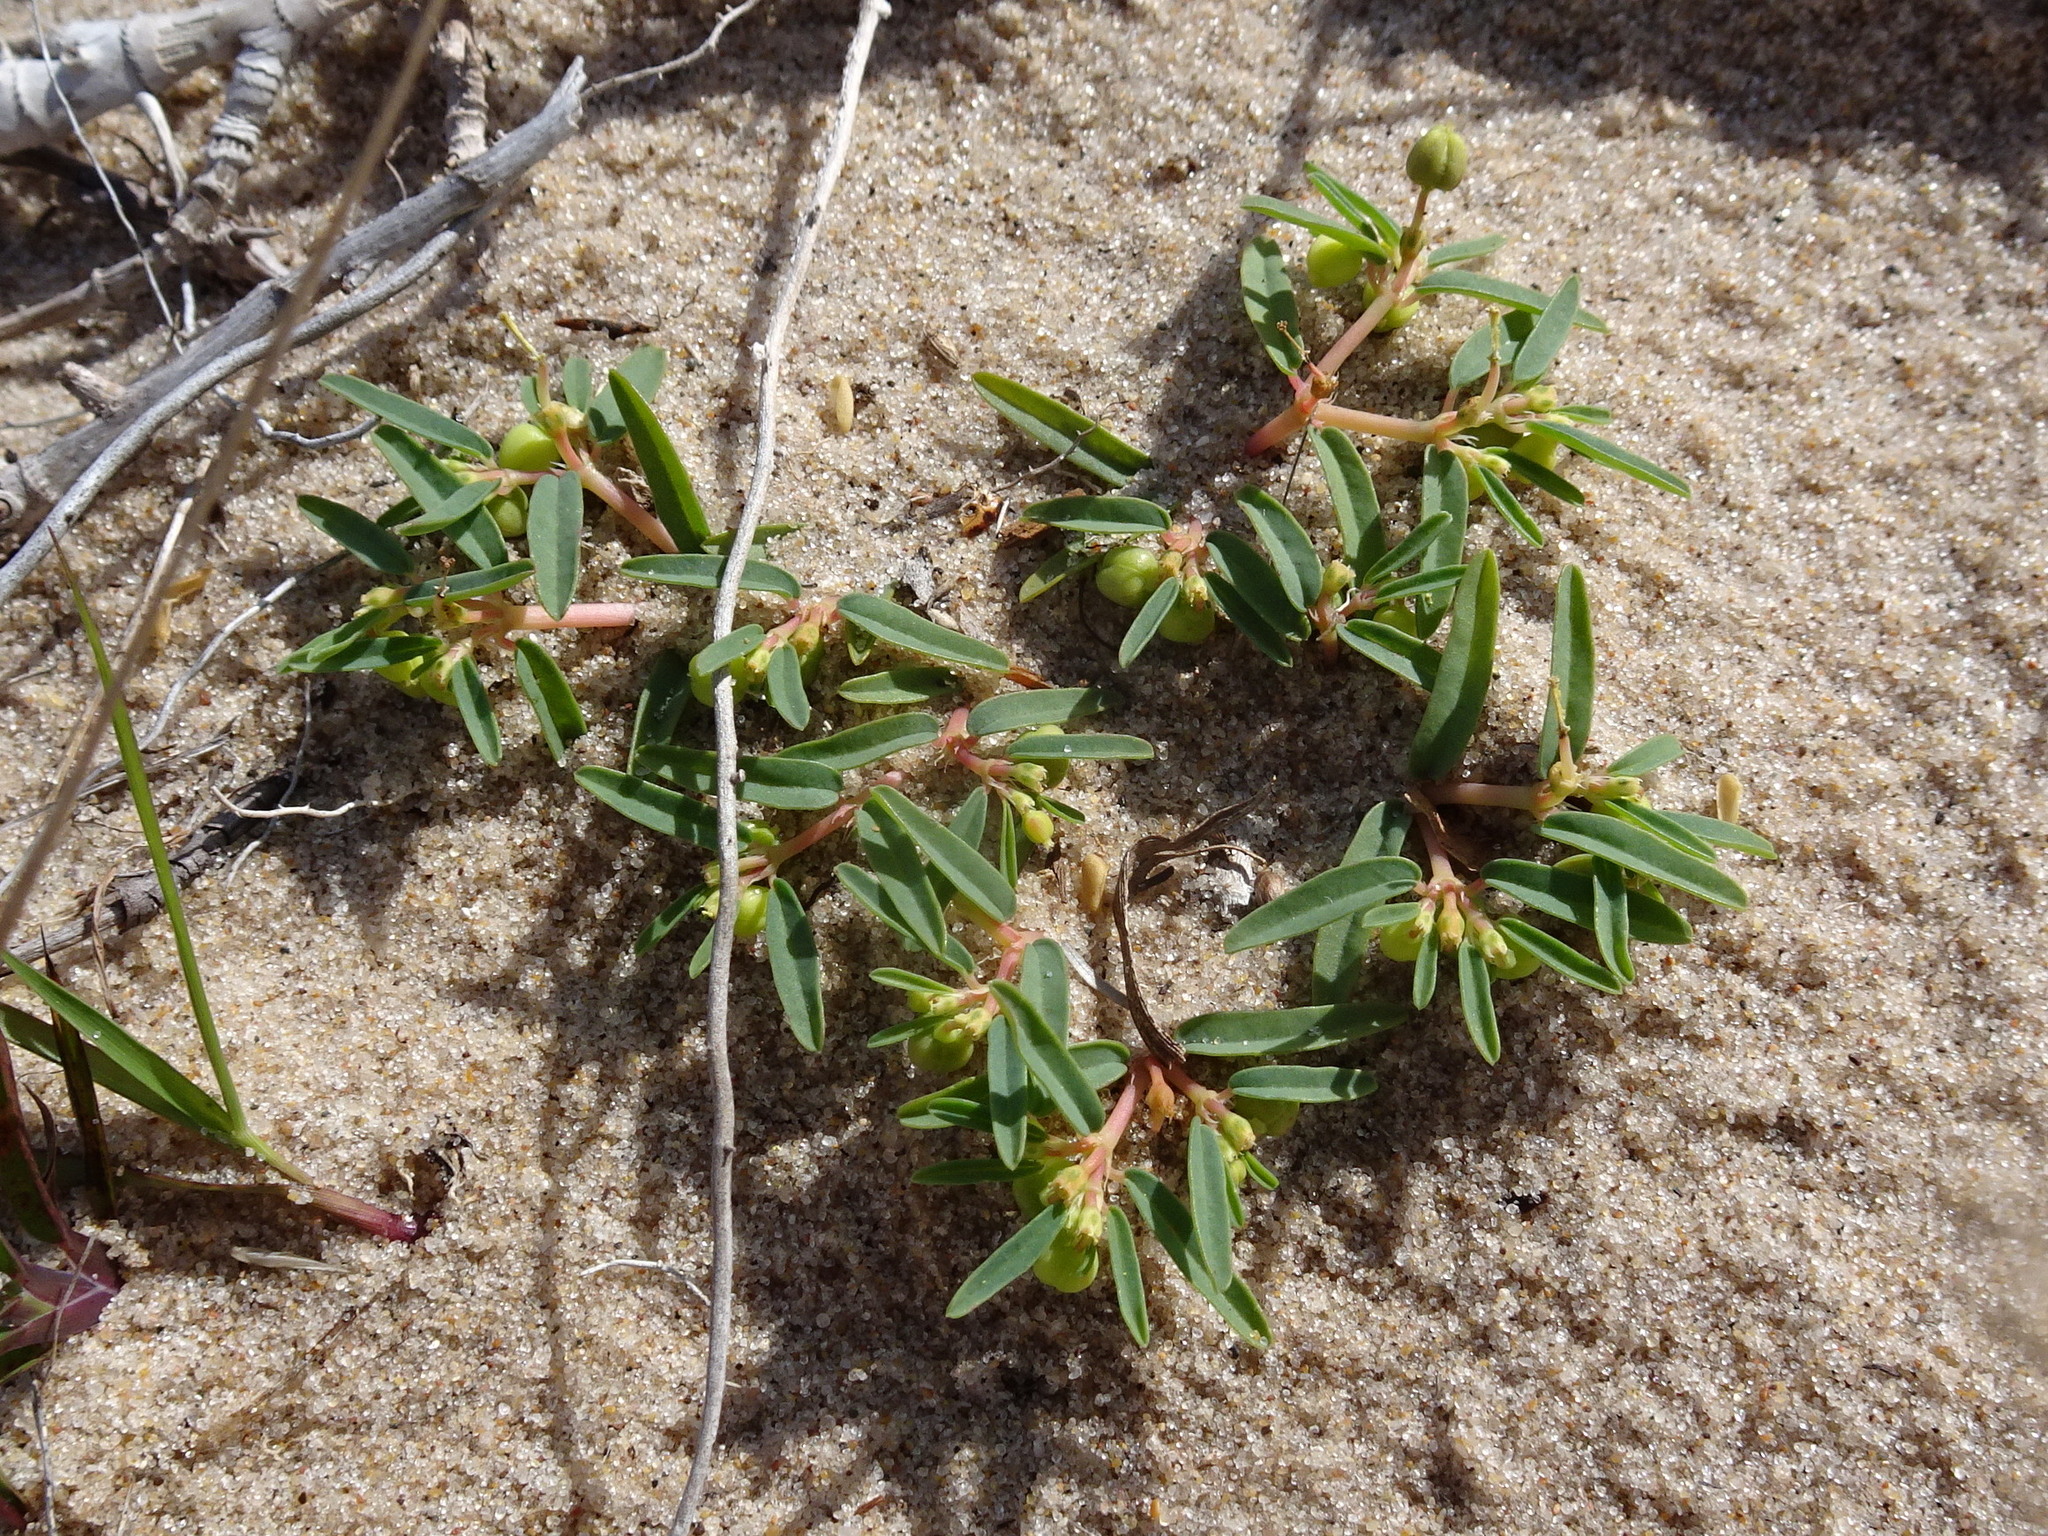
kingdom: Plantae
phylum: Tracheophyta
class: Magnoliopsida
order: Malpighiales
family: Euphorbiaceae
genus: Euphorbia
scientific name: Euphorbia polygonifolia
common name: Knotweed spurge
